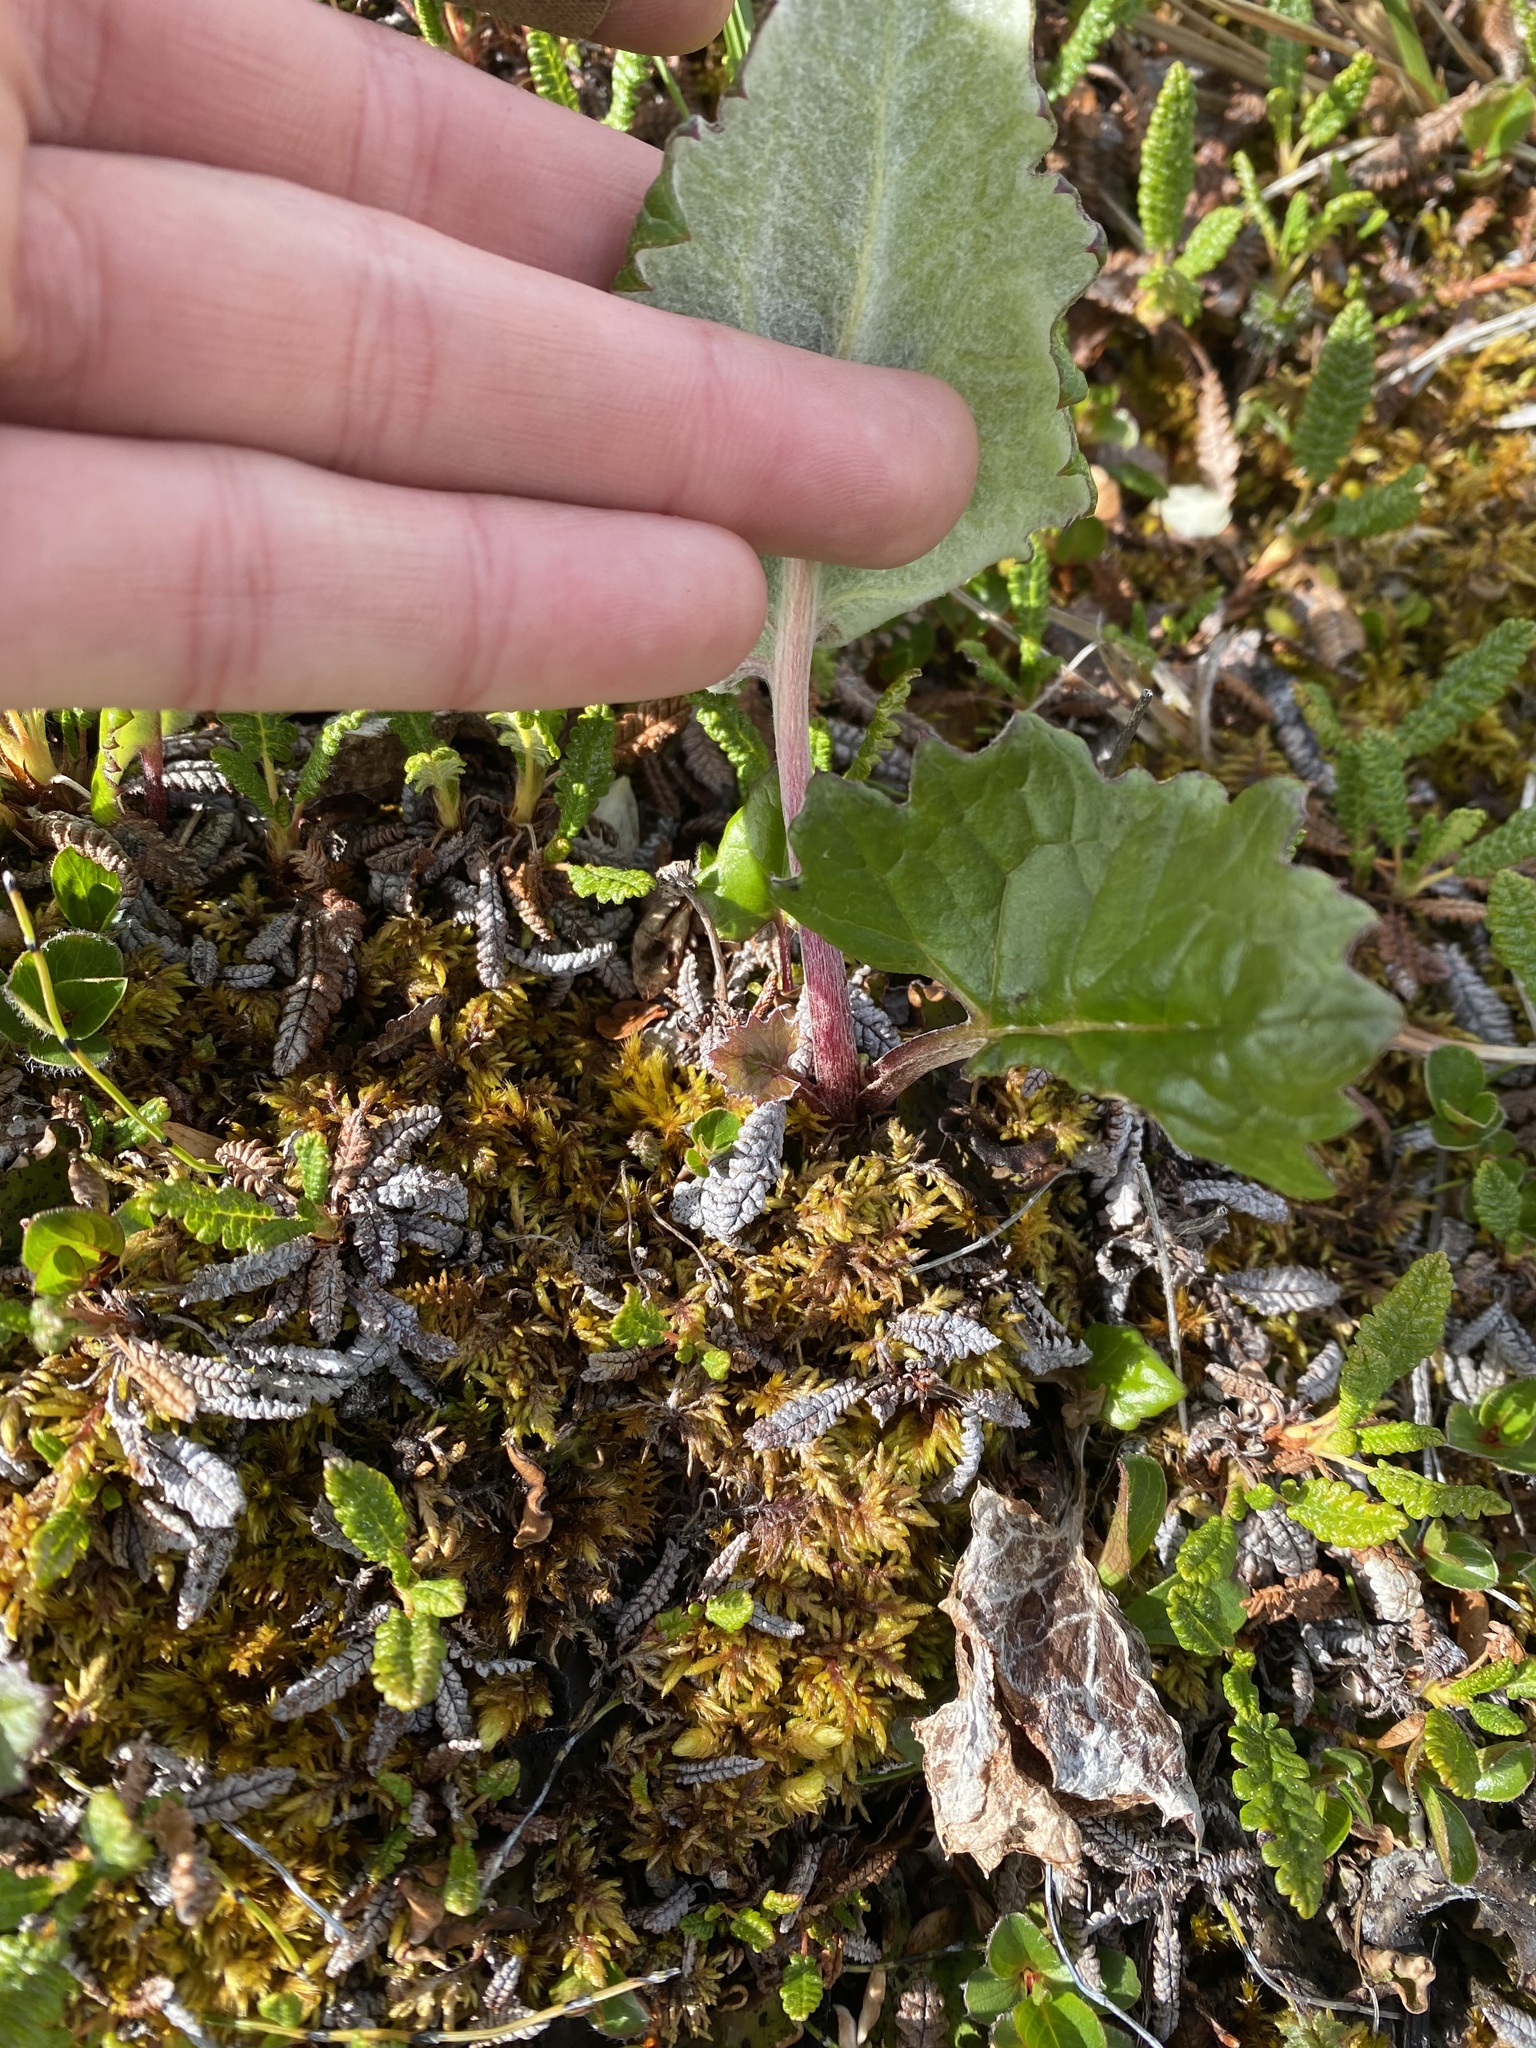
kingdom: Plantae
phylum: Tracheophyta
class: Magnoliopsida
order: Asterales
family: Asteraceae
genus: Petasites
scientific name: Petasites frigidus
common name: Arctic butterbur
